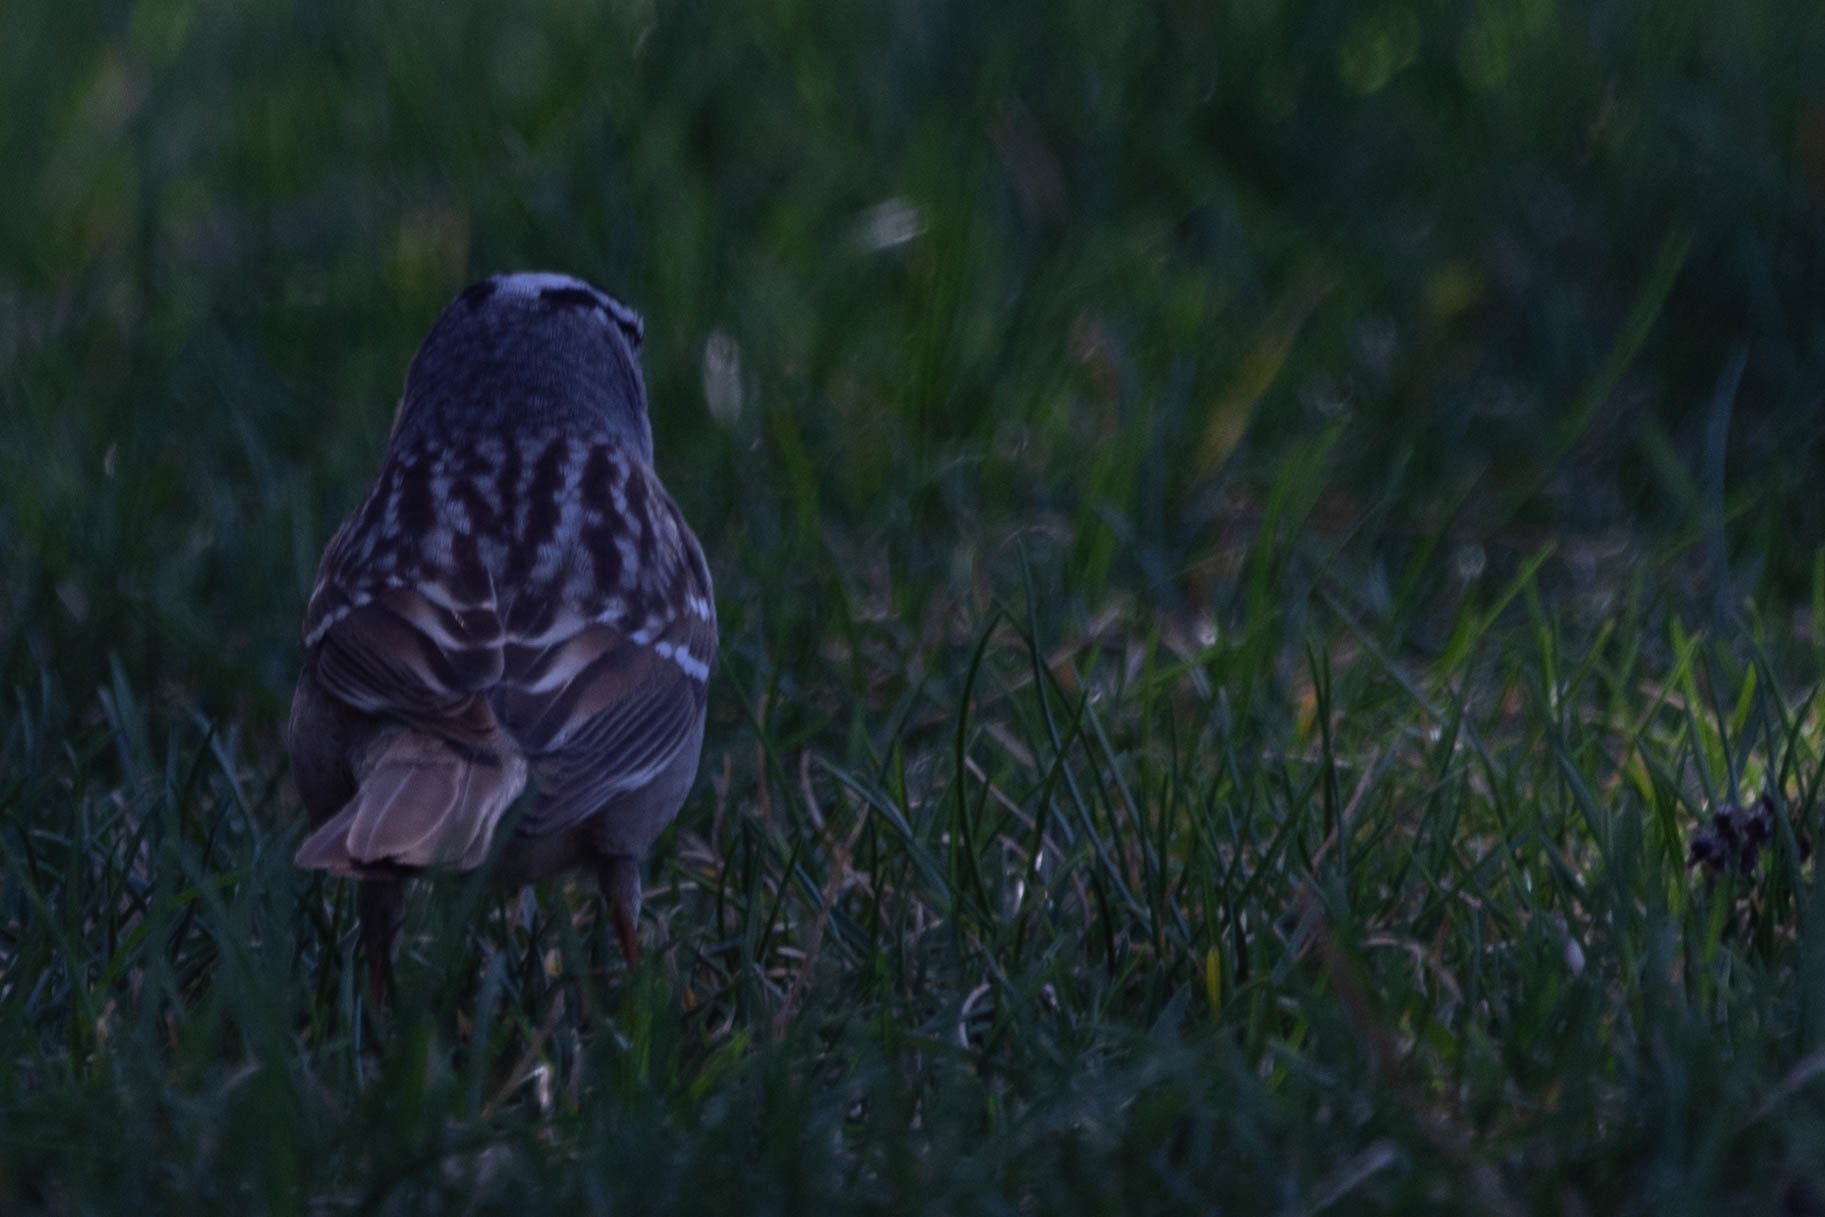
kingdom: Animalia
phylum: Chordata
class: Aves
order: Passeriformes
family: Passerellidae
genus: Zonotrichia
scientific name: Zonotrichia leucophrys
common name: White-crowned sparrow
